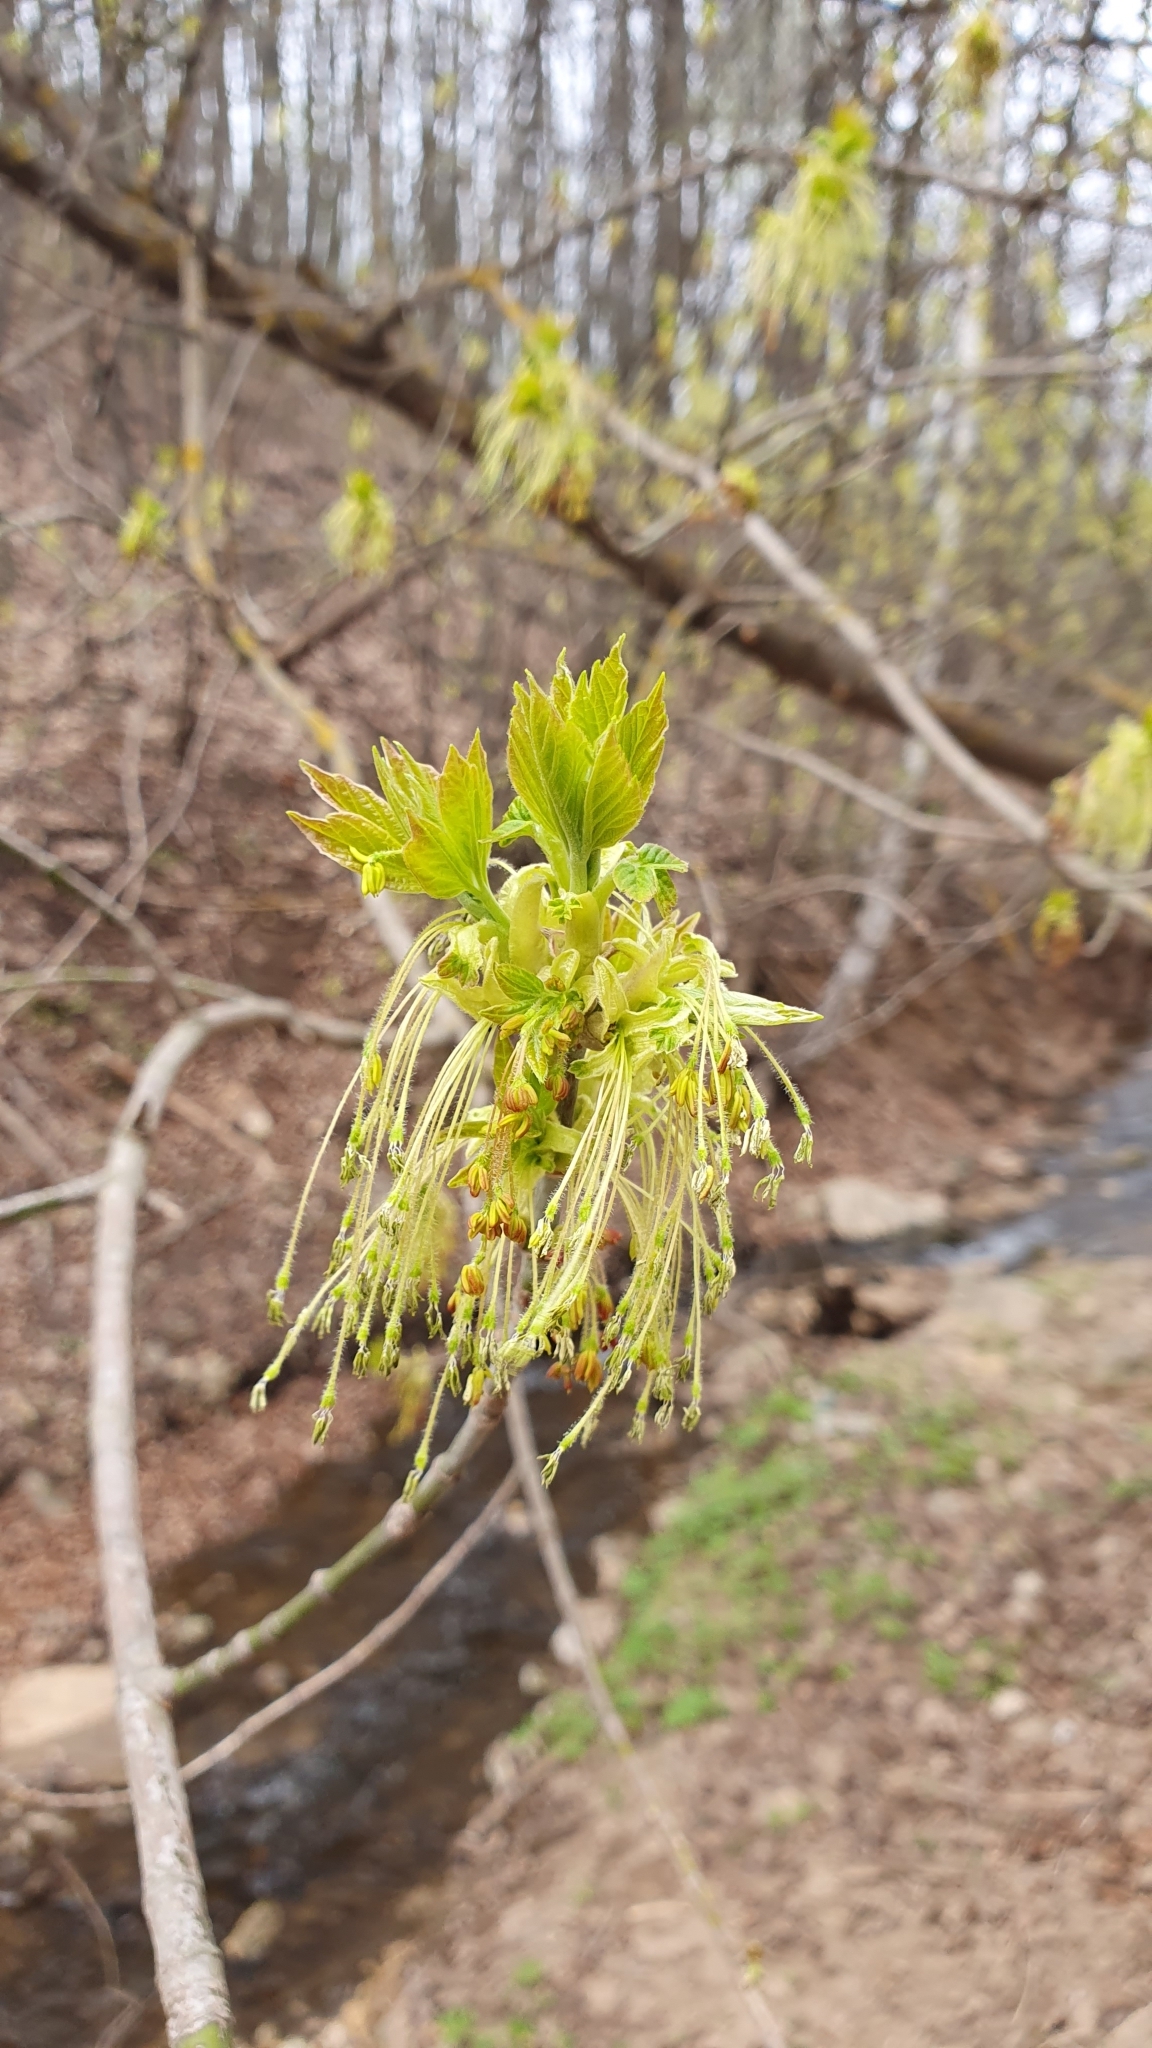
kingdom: Plantae
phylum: Tracheophyta
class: Magnoliopsida
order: Sapindales
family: Sapindaceae
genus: Acer
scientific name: Acer negundo
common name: Ashleaf maple
